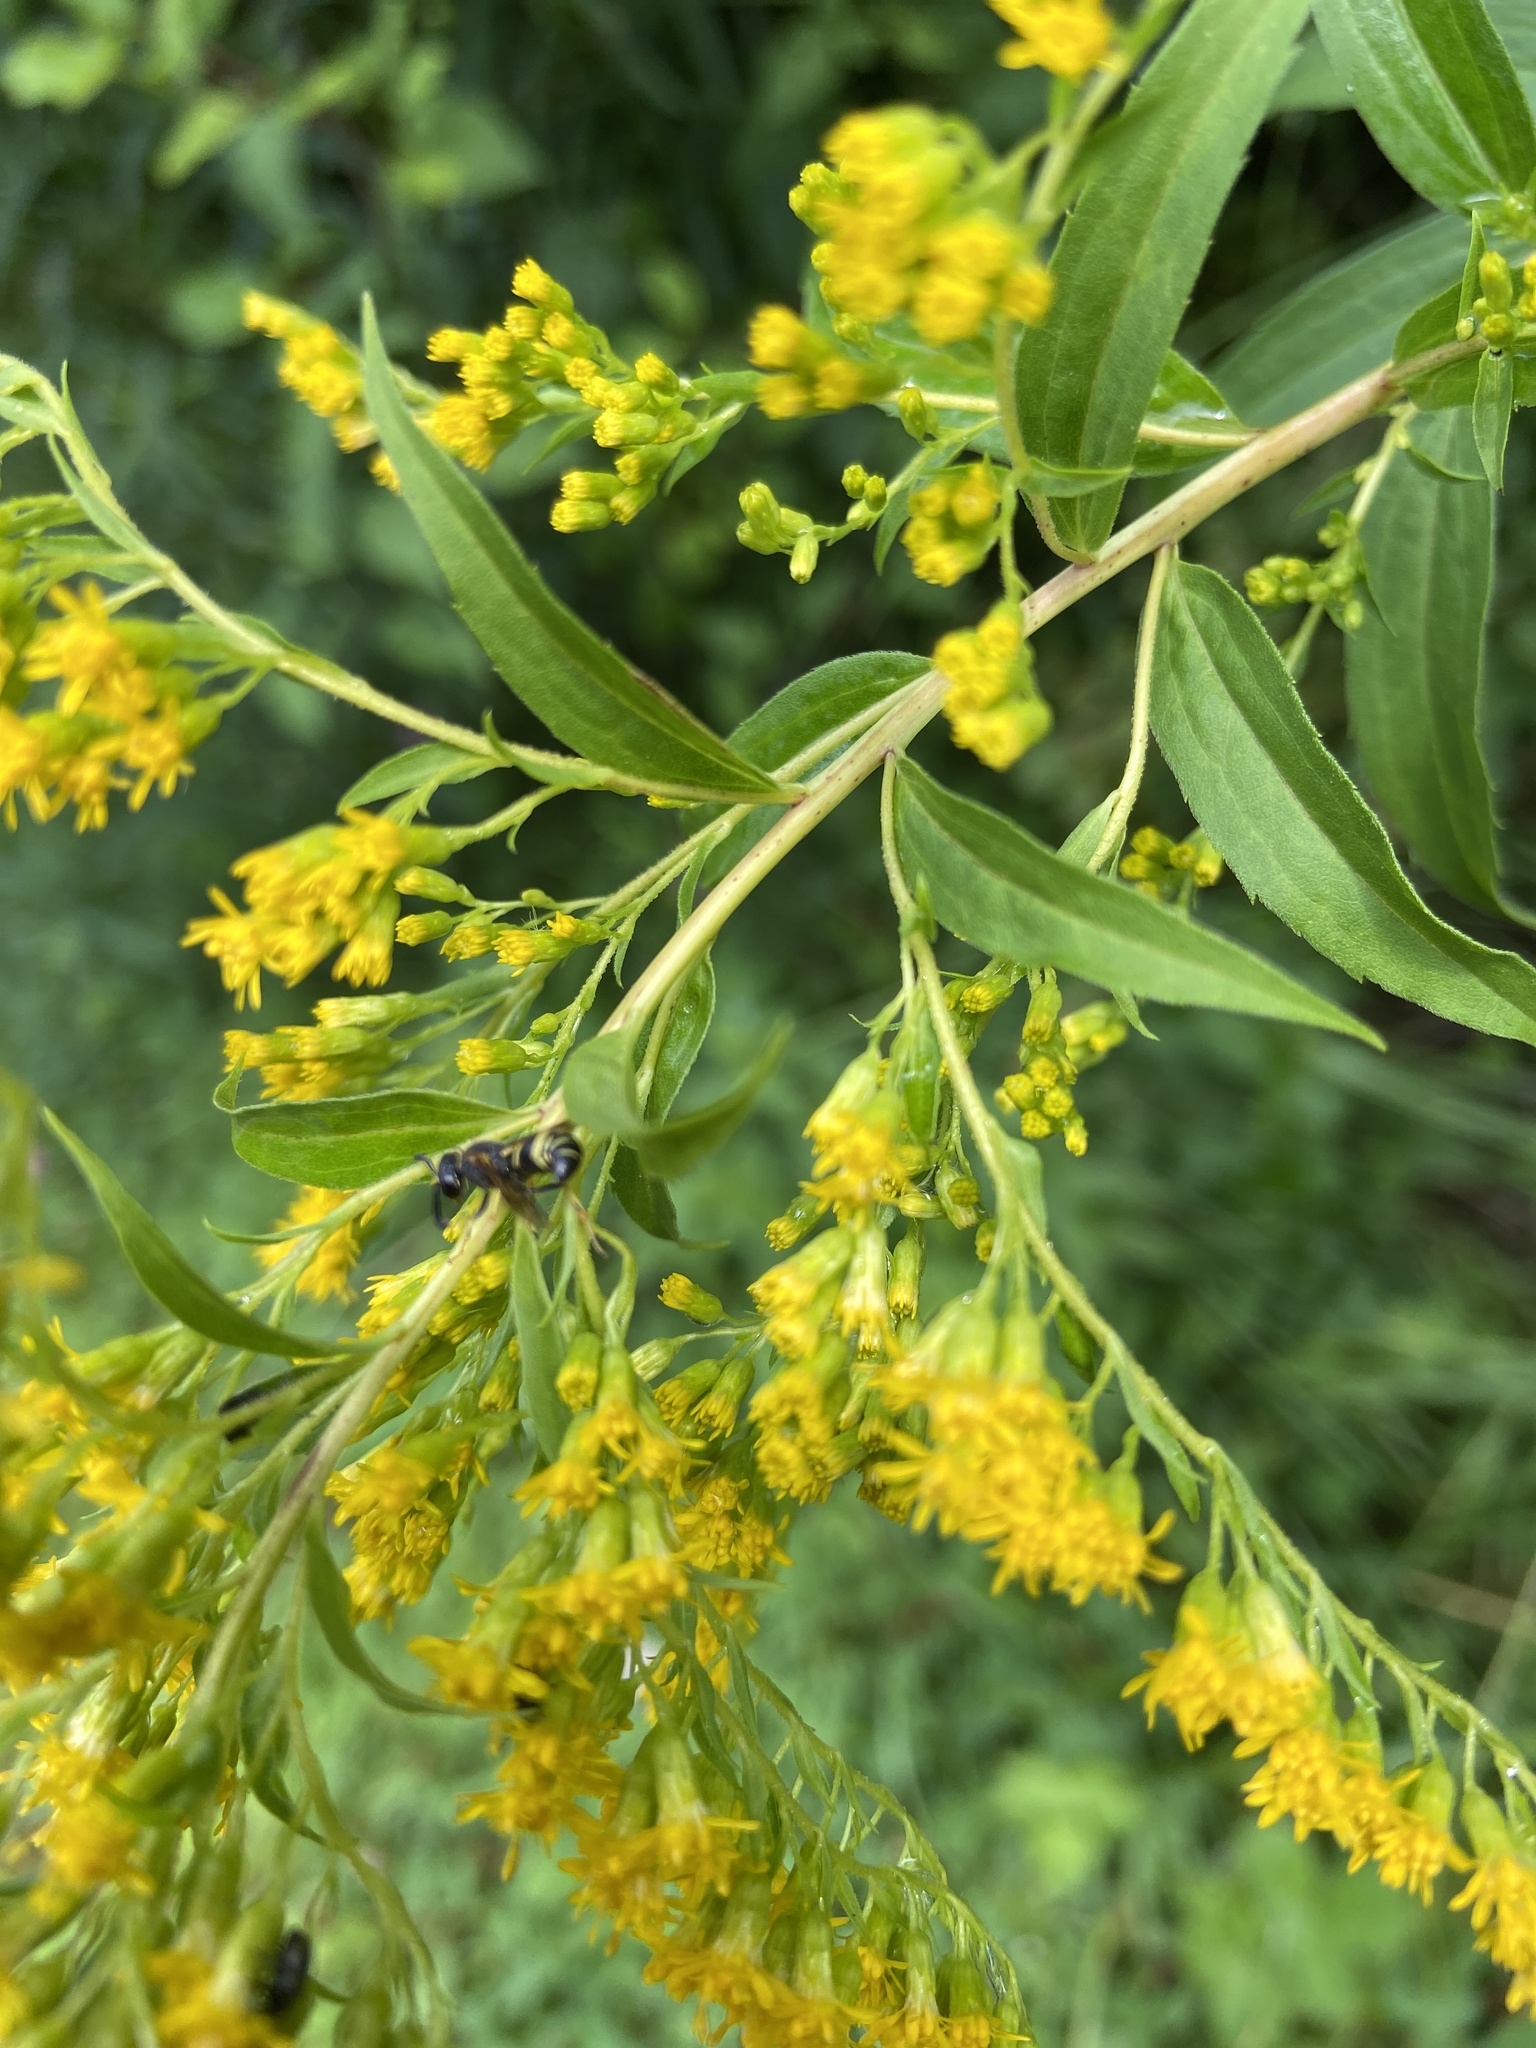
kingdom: Animalia
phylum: Arthropoda
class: Insecta
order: Hymenoptera
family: Eumenidae
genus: Euodynerus
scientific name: Euodynerus foraminatus
